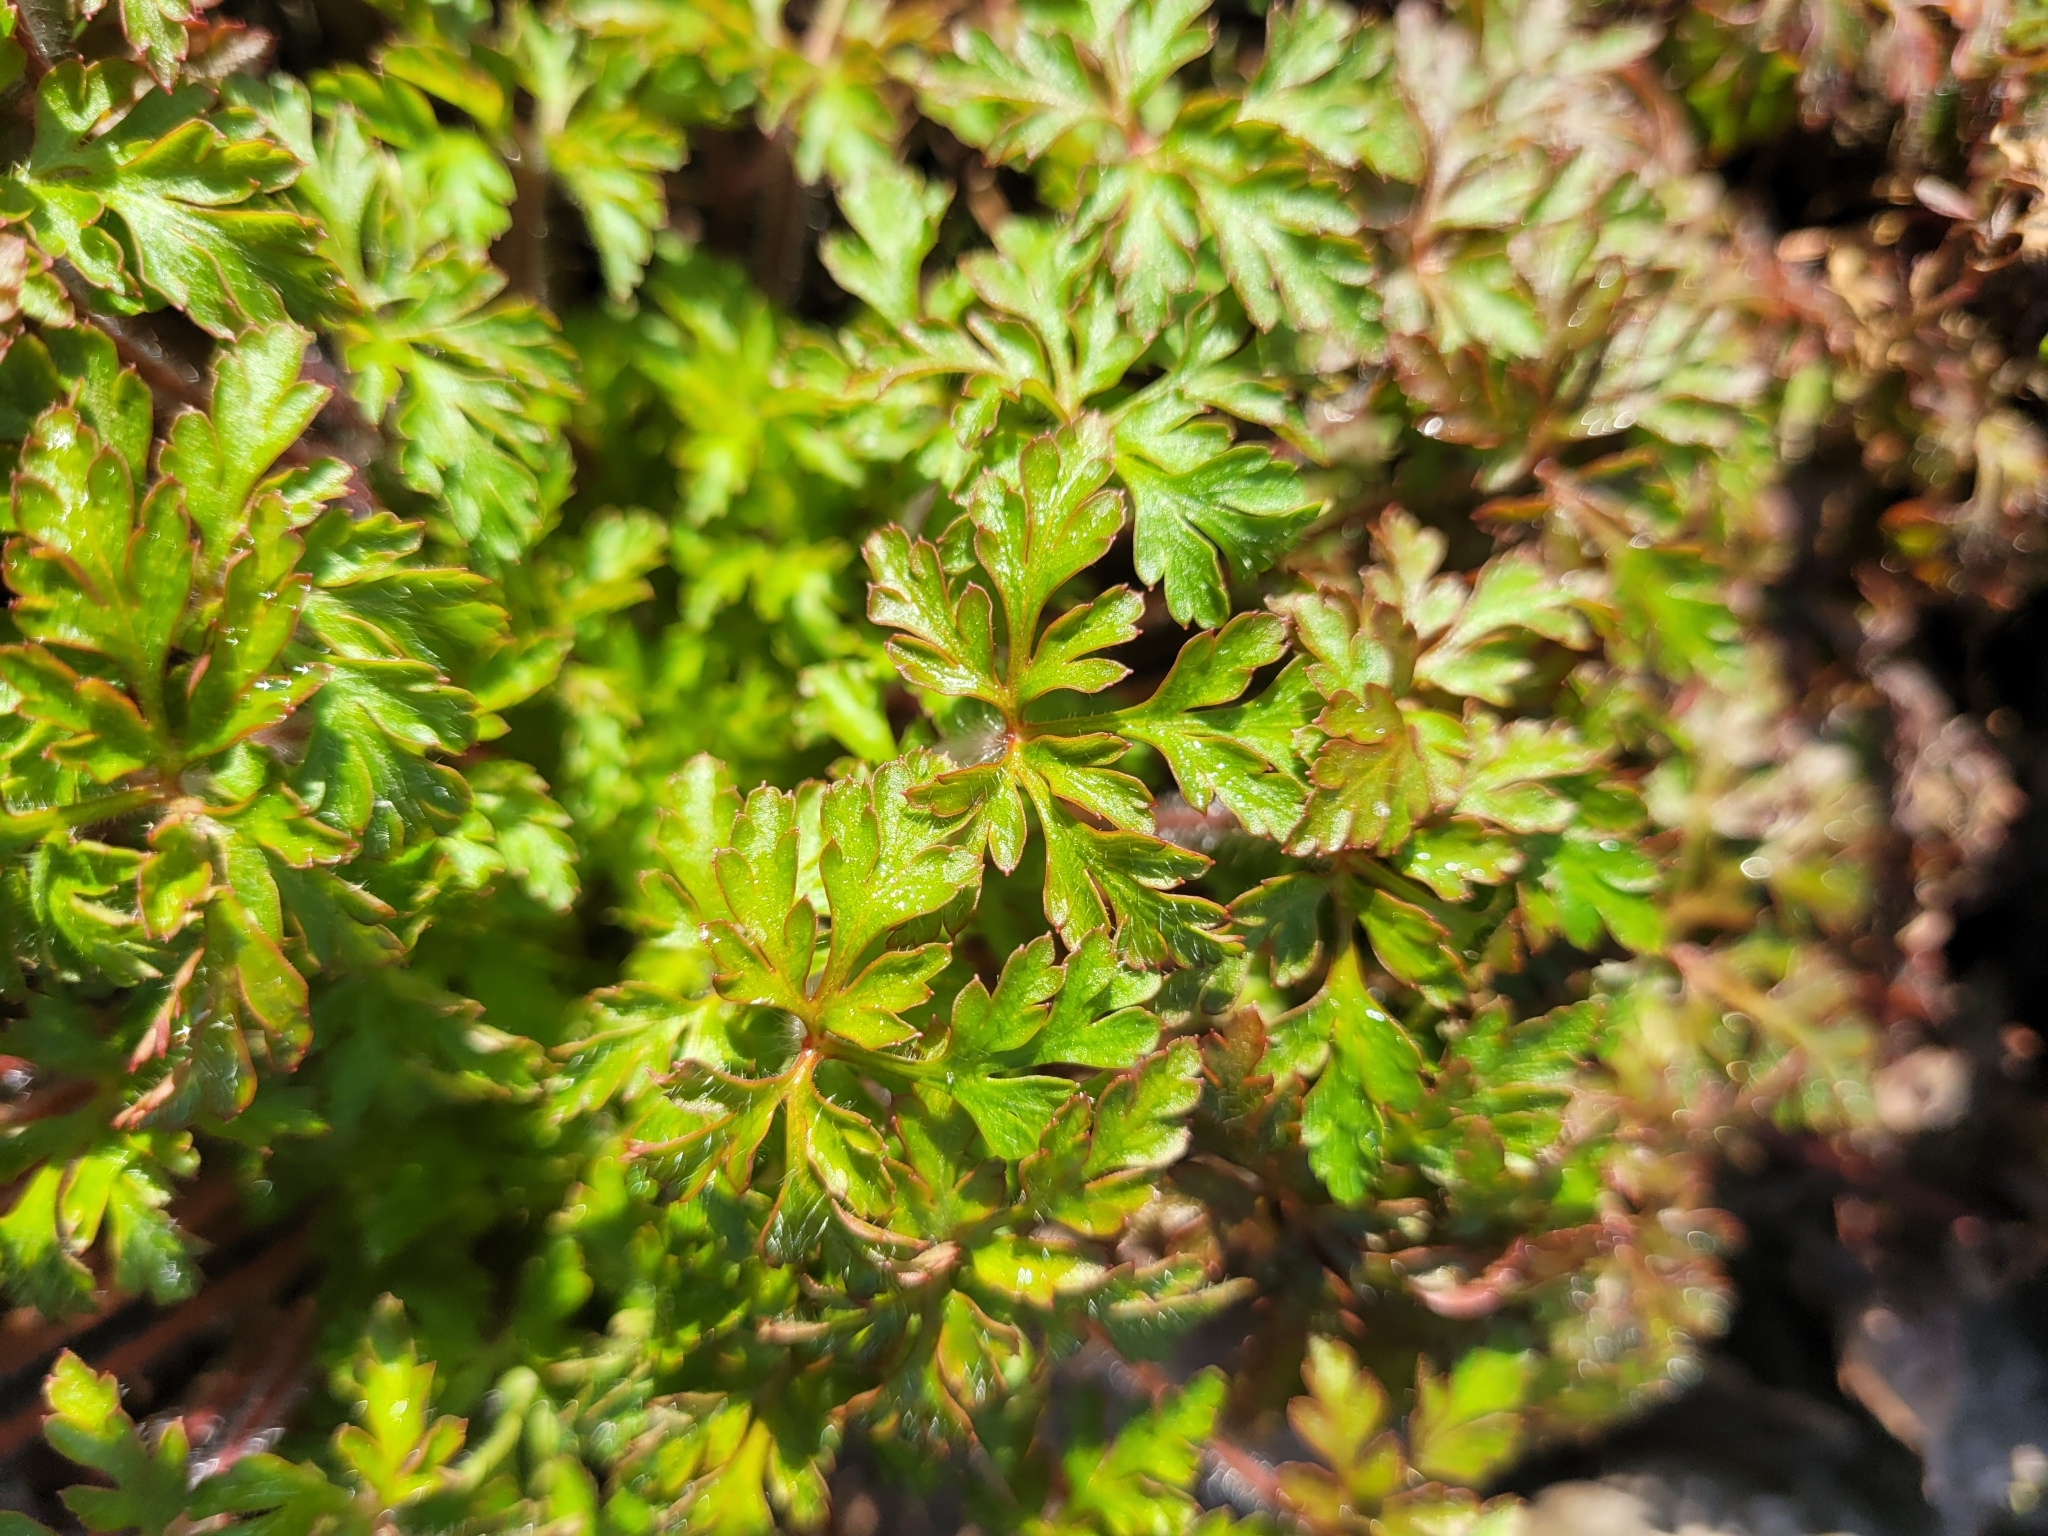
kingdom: Plantae
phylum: Tracheophyta
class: Magnoliopsida
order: Geraniales
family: Geraniaceae
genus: Geranium
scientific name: Geranium robertianum
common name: Herb-robert
